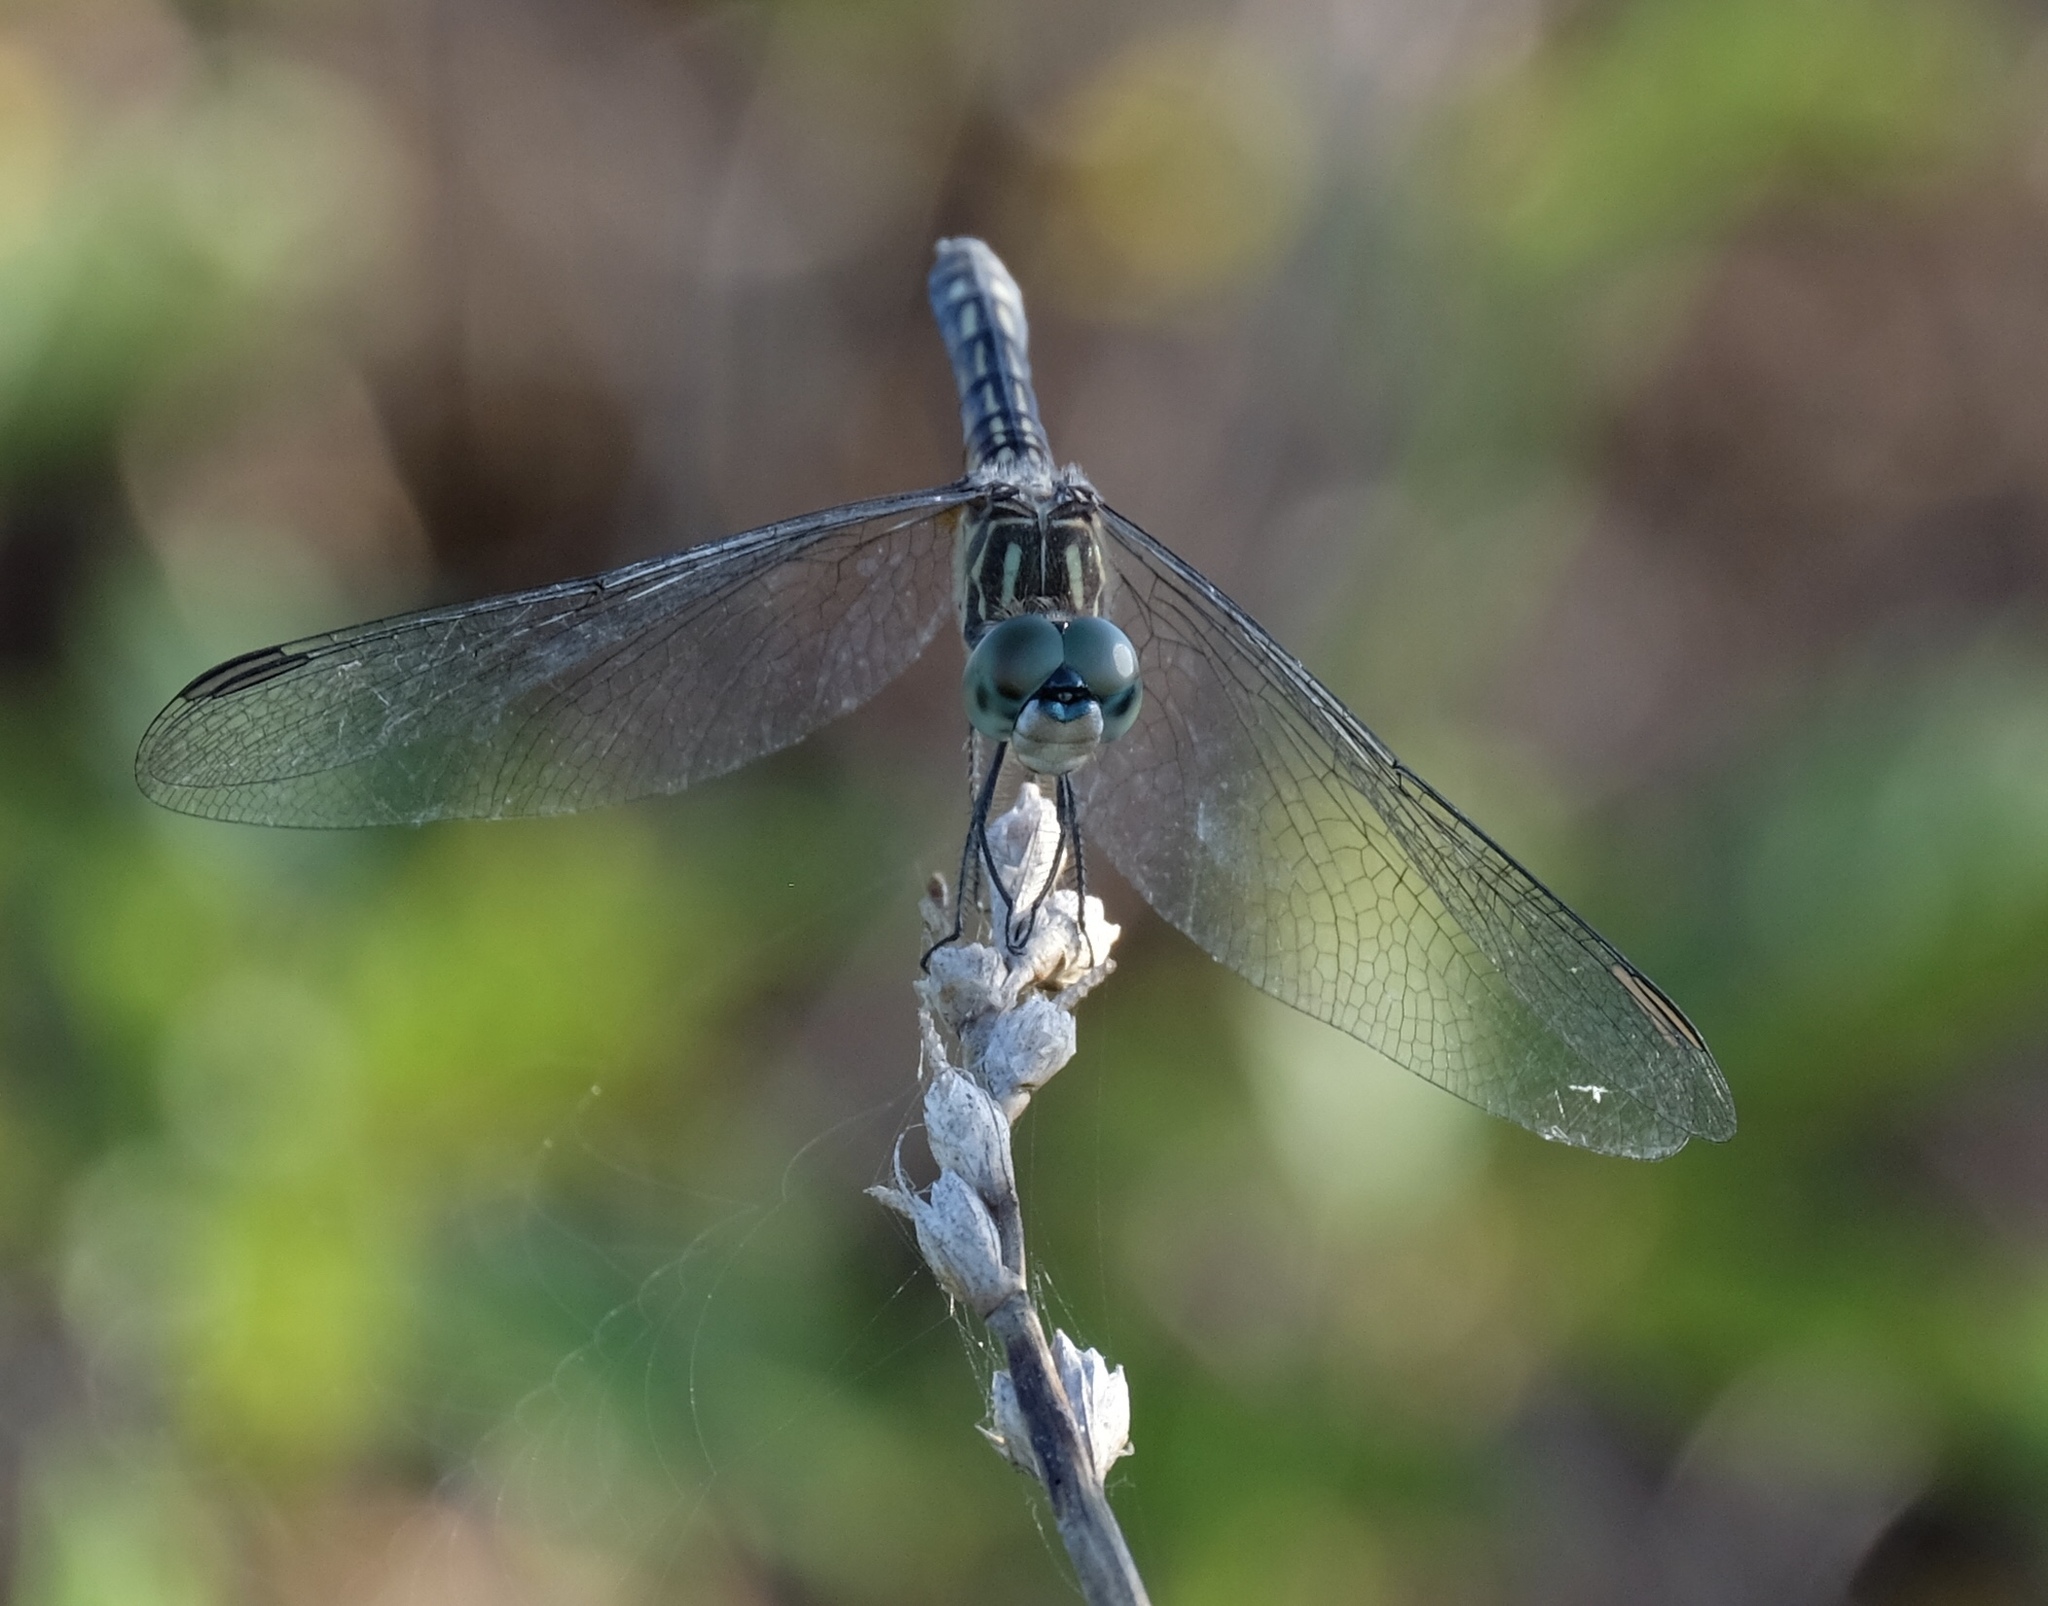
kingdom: Animalia
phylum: Arthropoda
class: Insecta
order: Odonata
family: Libellulidae
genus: Pachydiplax
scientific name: Pachydiplax longipennis
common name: Blue dasher
